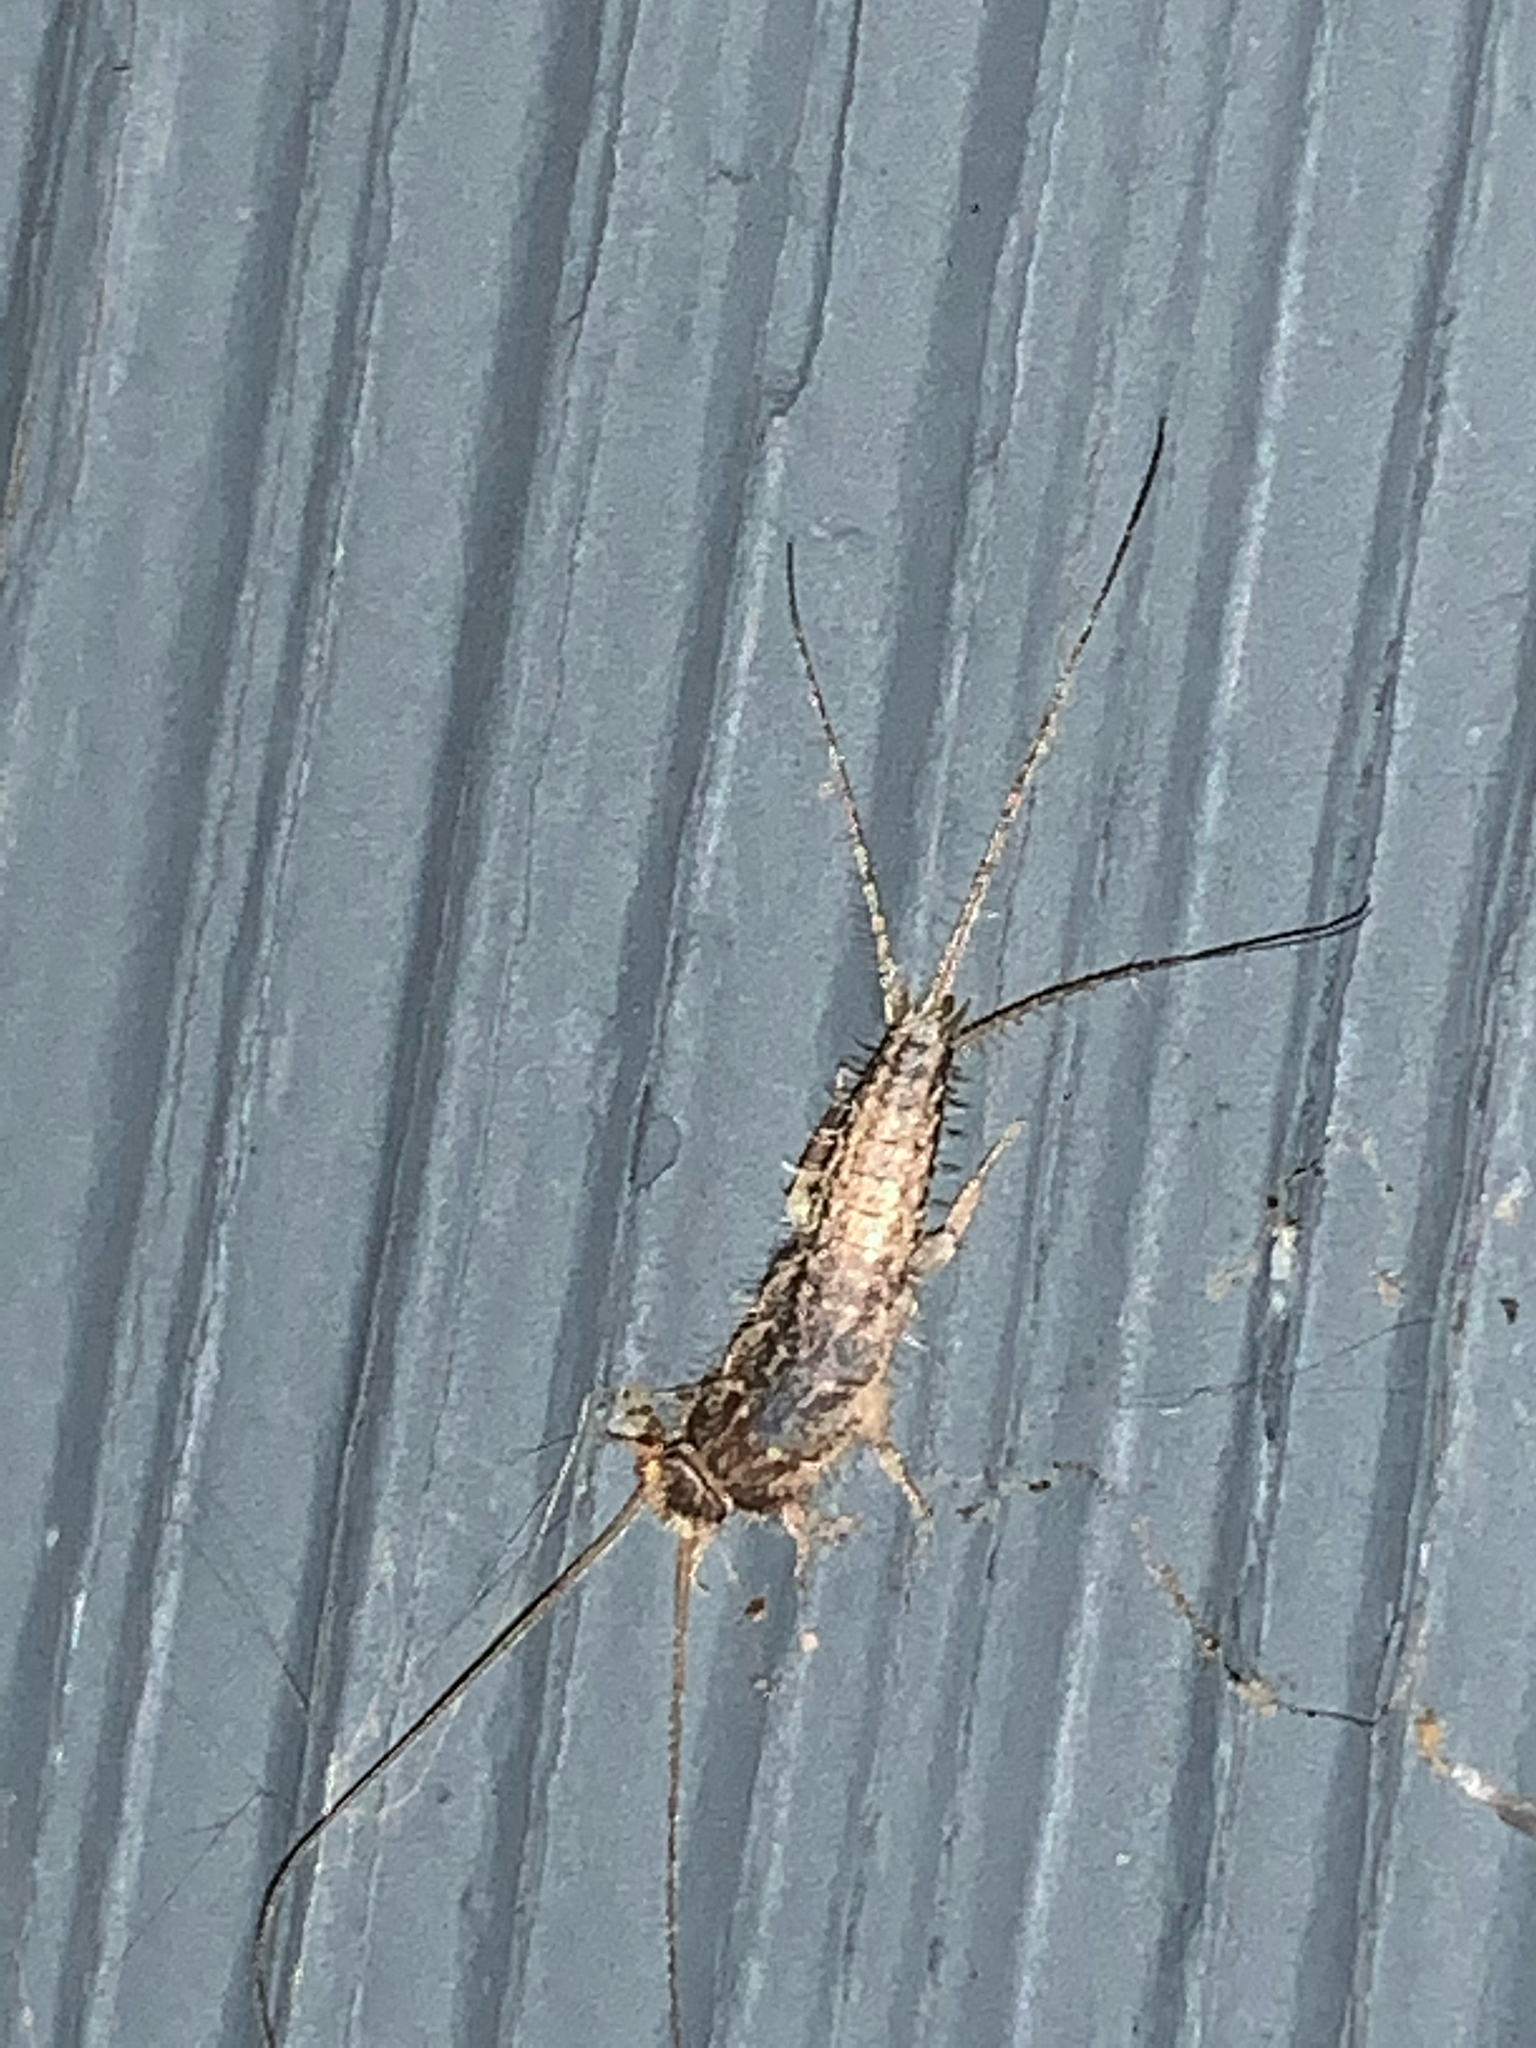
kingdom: Animalia
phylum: Arthropoda
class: Insecta
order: Zygentoma
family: Lepismatidae
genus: Ctenolepisma
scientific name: Ctenolepisma lineata
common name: Four-lined silverfish
